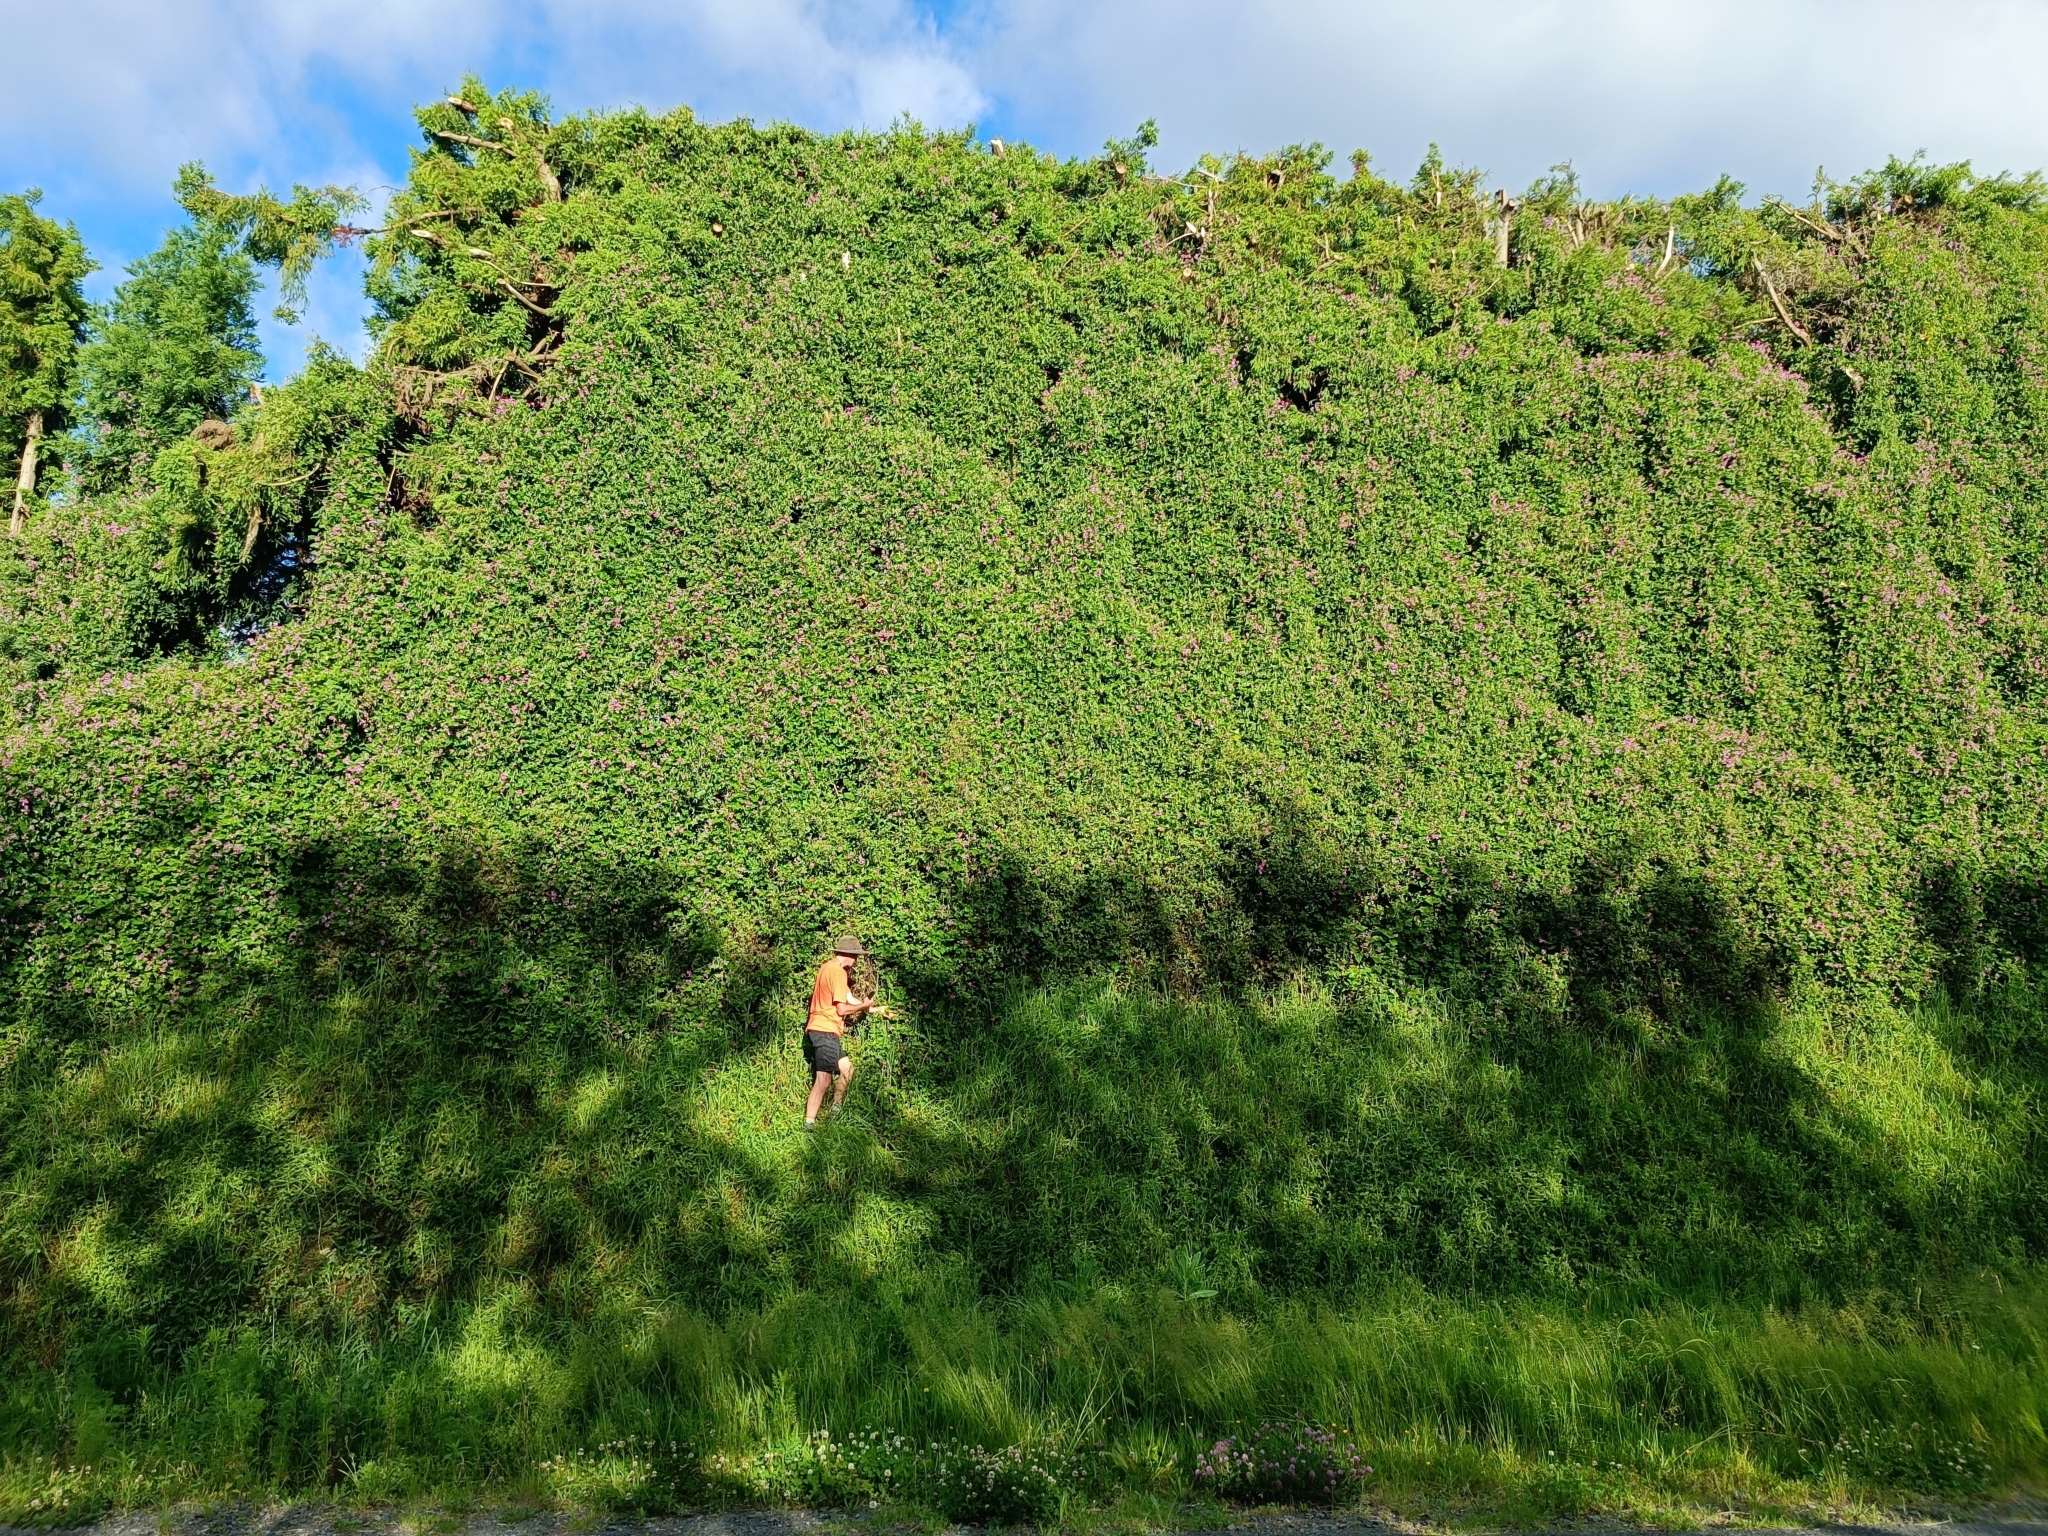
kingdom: Plantae
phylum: Tracheophyta
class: Magnoliopsida
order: Fabales
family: Fabaceae
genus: Dipogon
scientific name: Dipogon lignosus
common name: Okie bean
